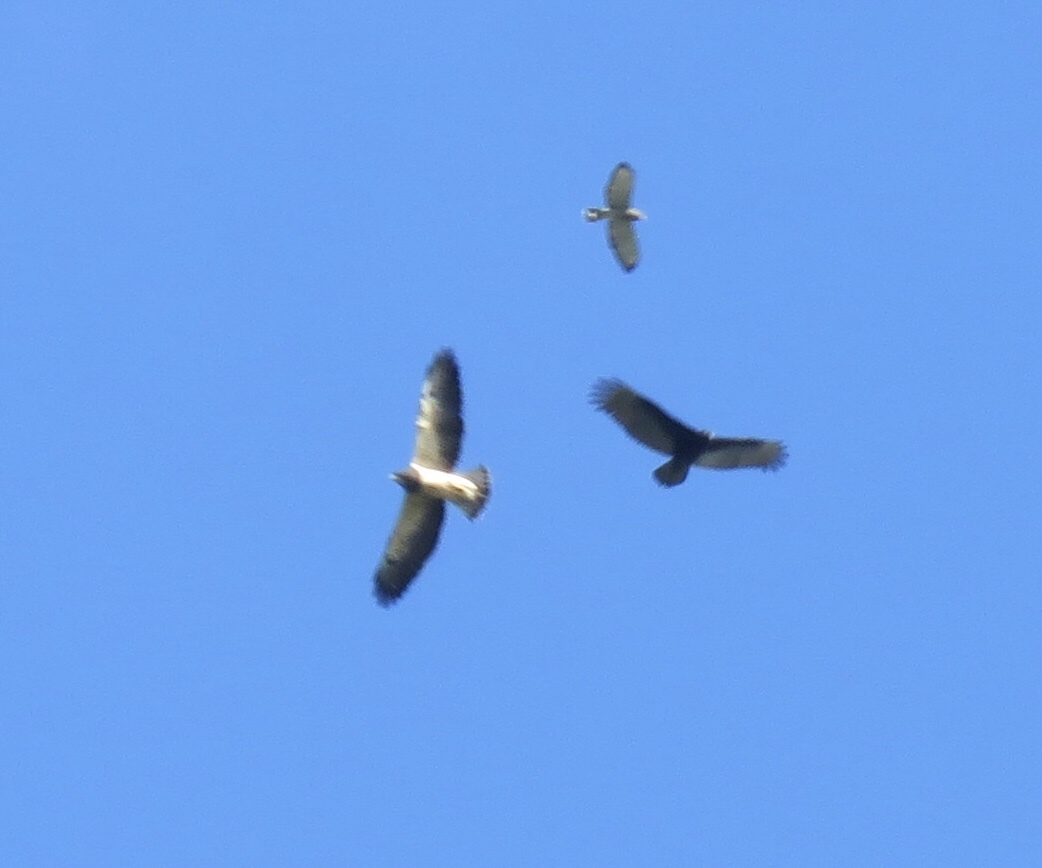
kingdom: Animalia
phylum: Chordata
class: Aves
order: Accipitriformes
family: Accipitridae
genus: Buteo
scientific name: Buteo swainsoni
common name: Swainson's hawk
